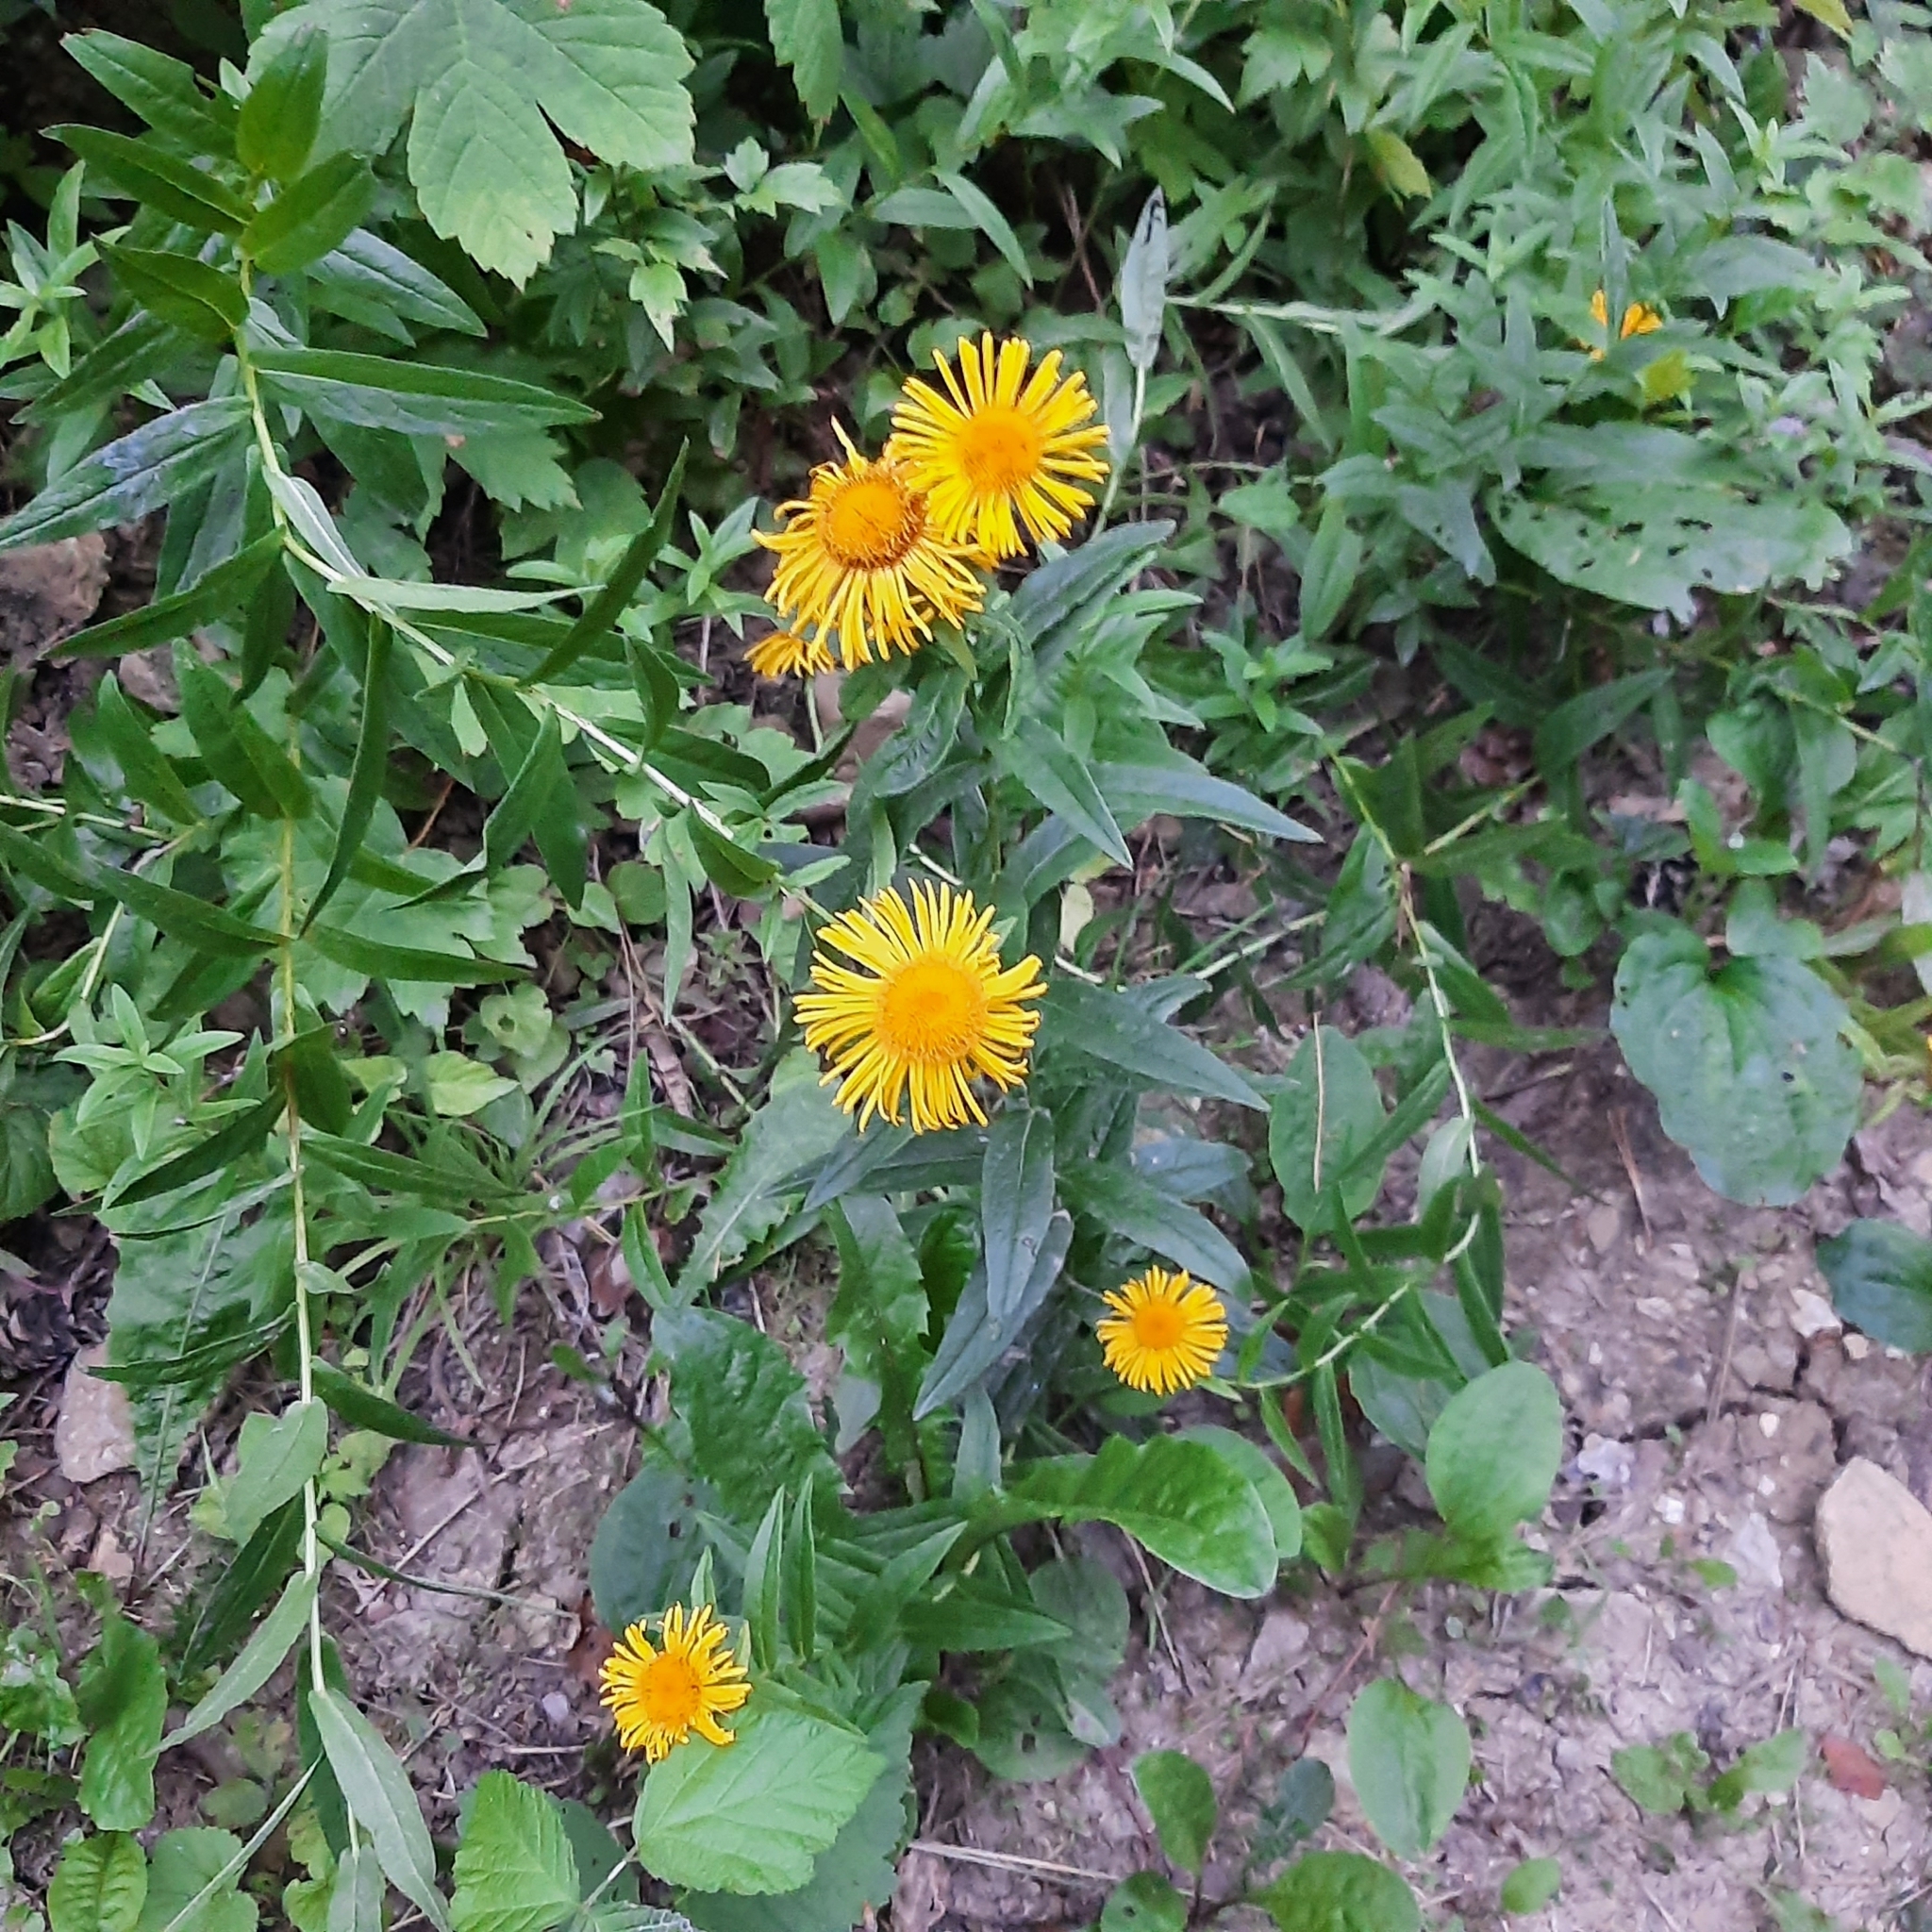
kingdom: Plantae
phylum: Tracheophyta
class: Magnoliopsida
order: Asterales
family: Asteraceae
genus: Pentanema
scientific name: Pentanema salicinum
